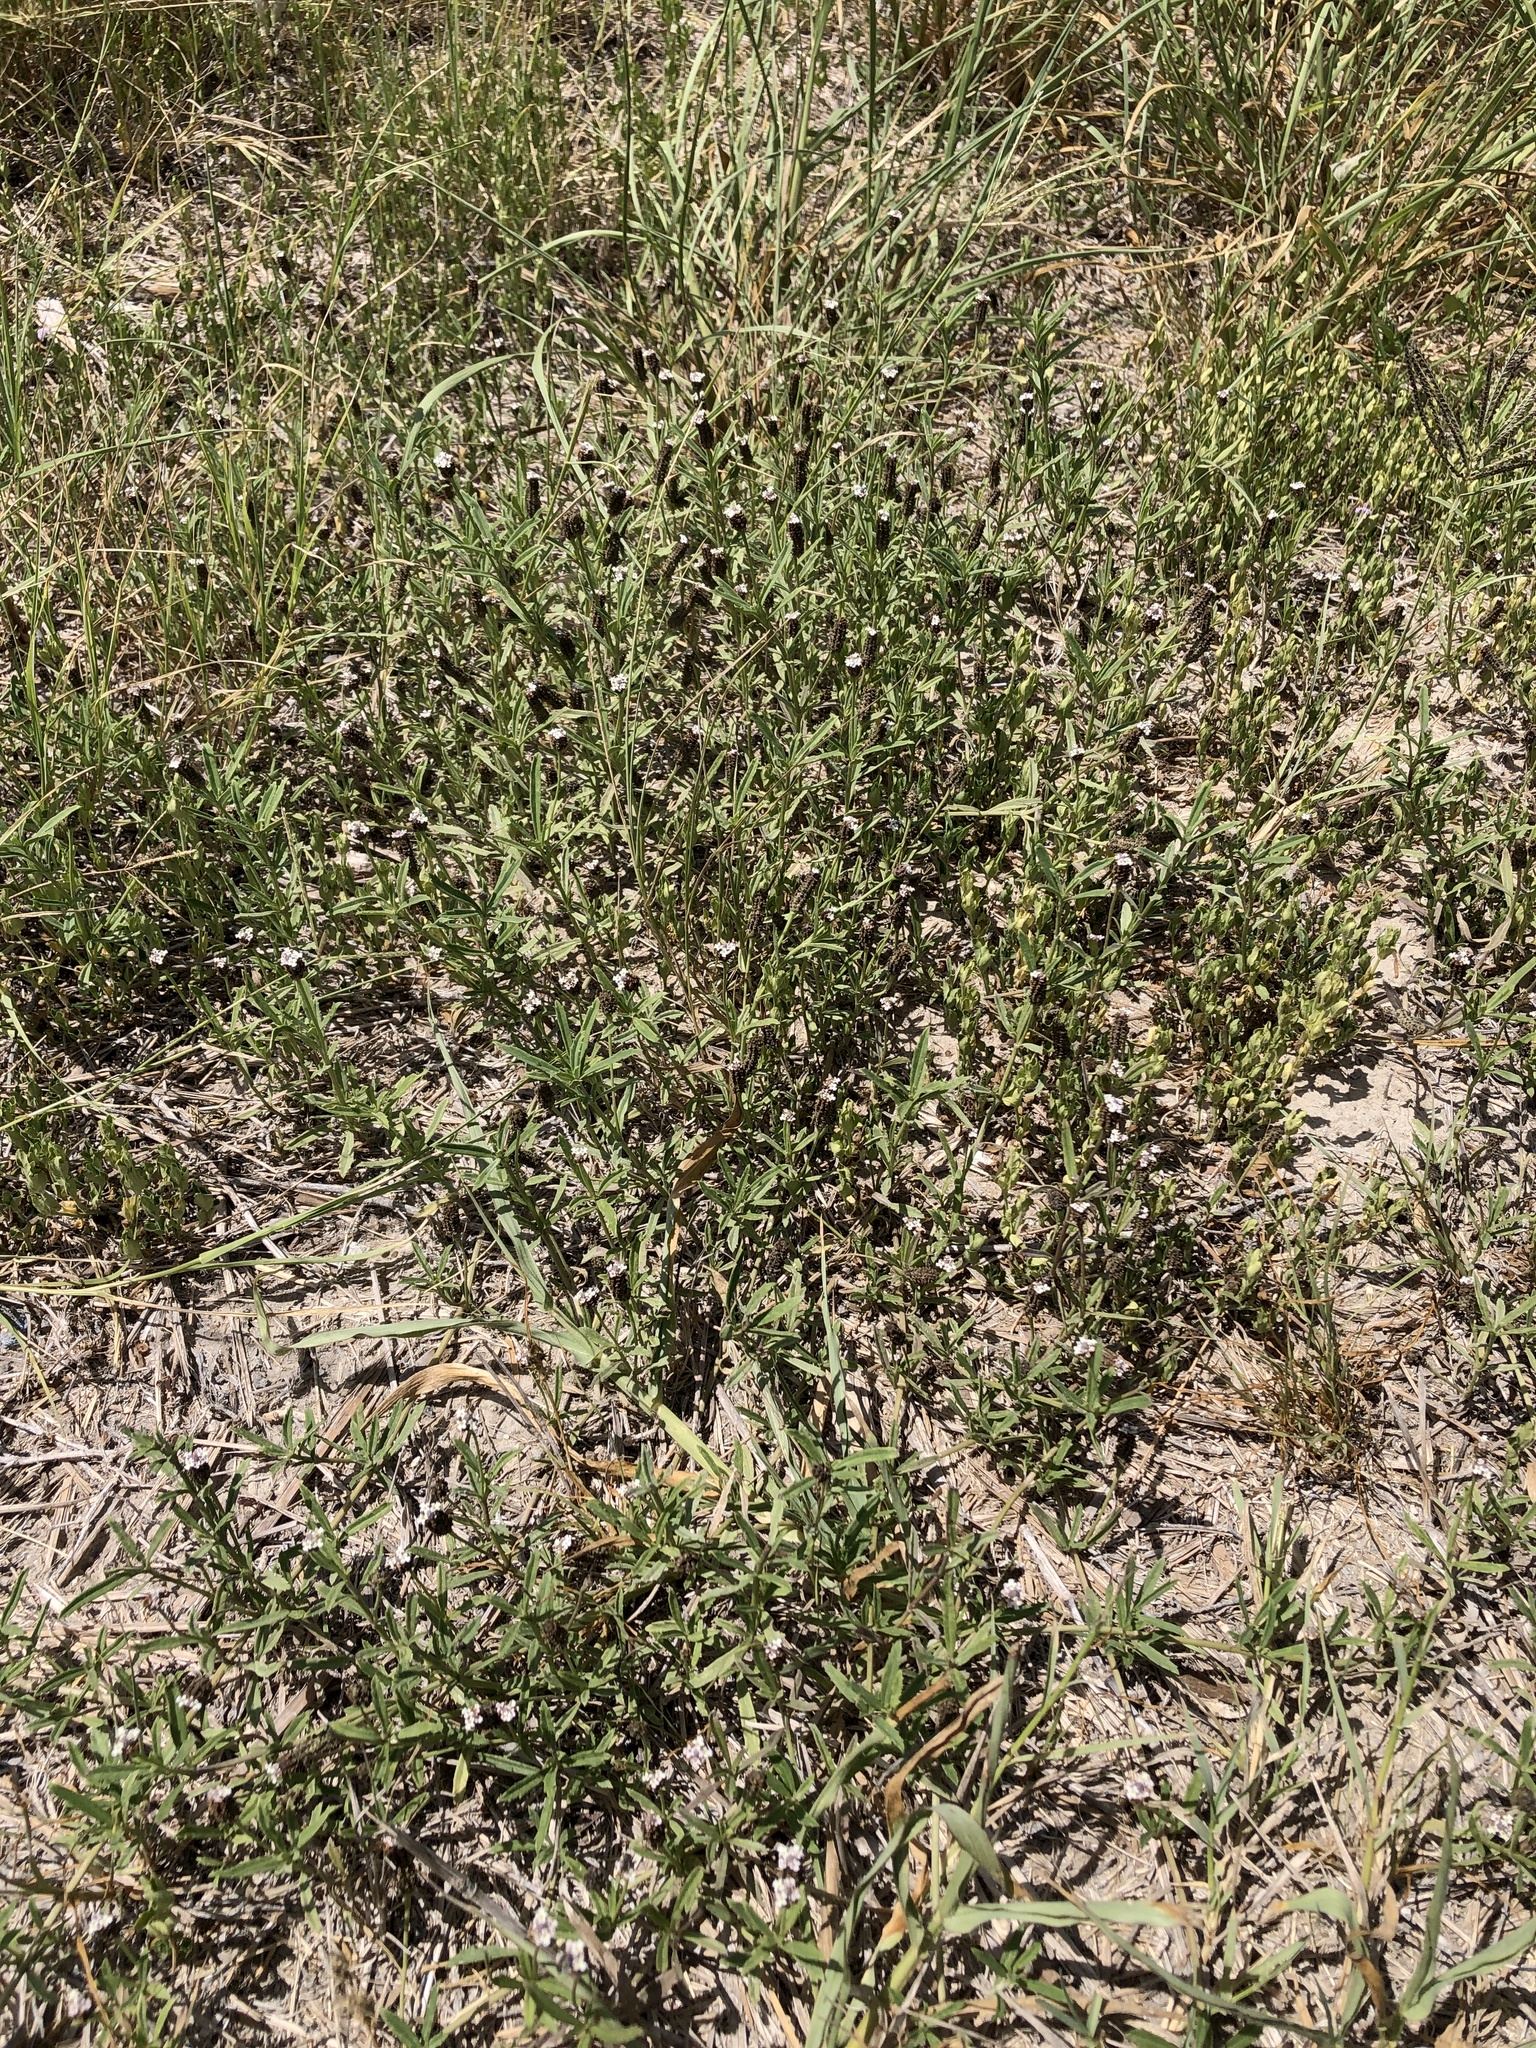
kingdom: Plantae
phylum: Tracheophyta
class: Magnoliopsida
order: Lamiales
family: Verbenaceae
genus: Phyla
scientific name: Phyla nodiflora
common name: Frogfruit
